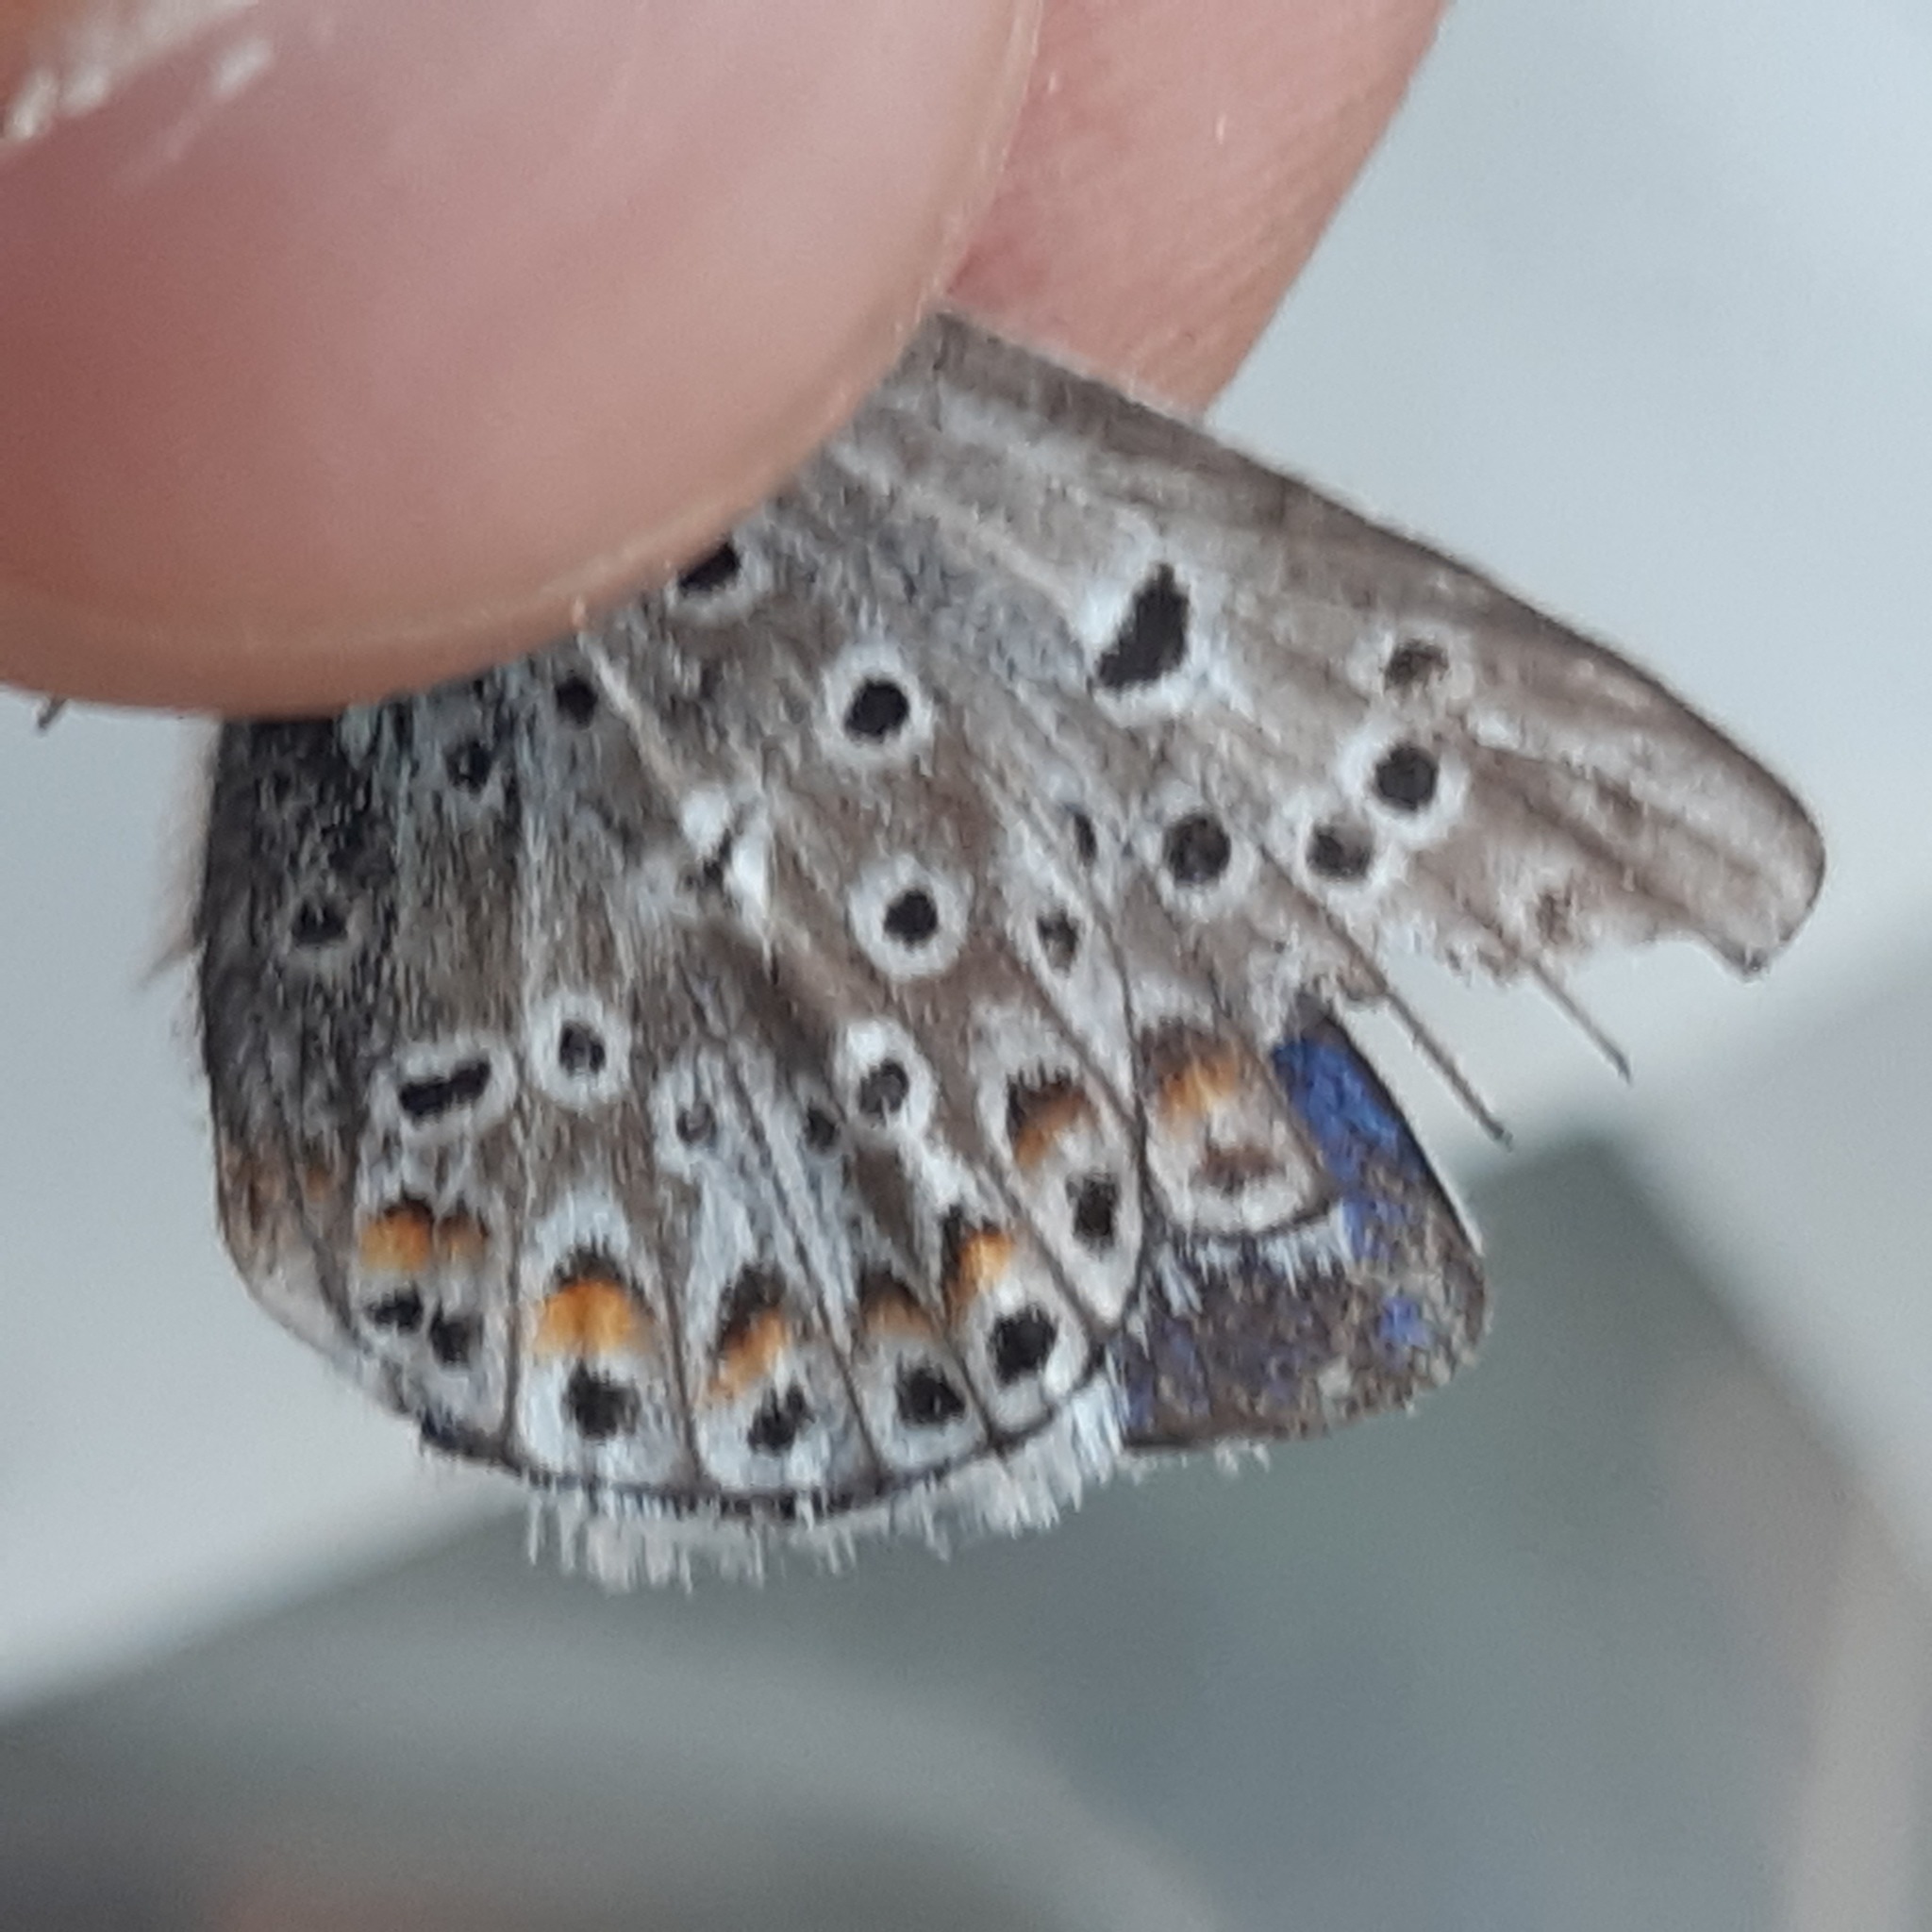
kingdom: Animalia
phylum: Arthropoda
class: Insecta
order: Lepidoptera
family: Lycaenidae
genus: Plebicula
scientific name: Plebicula escheri
